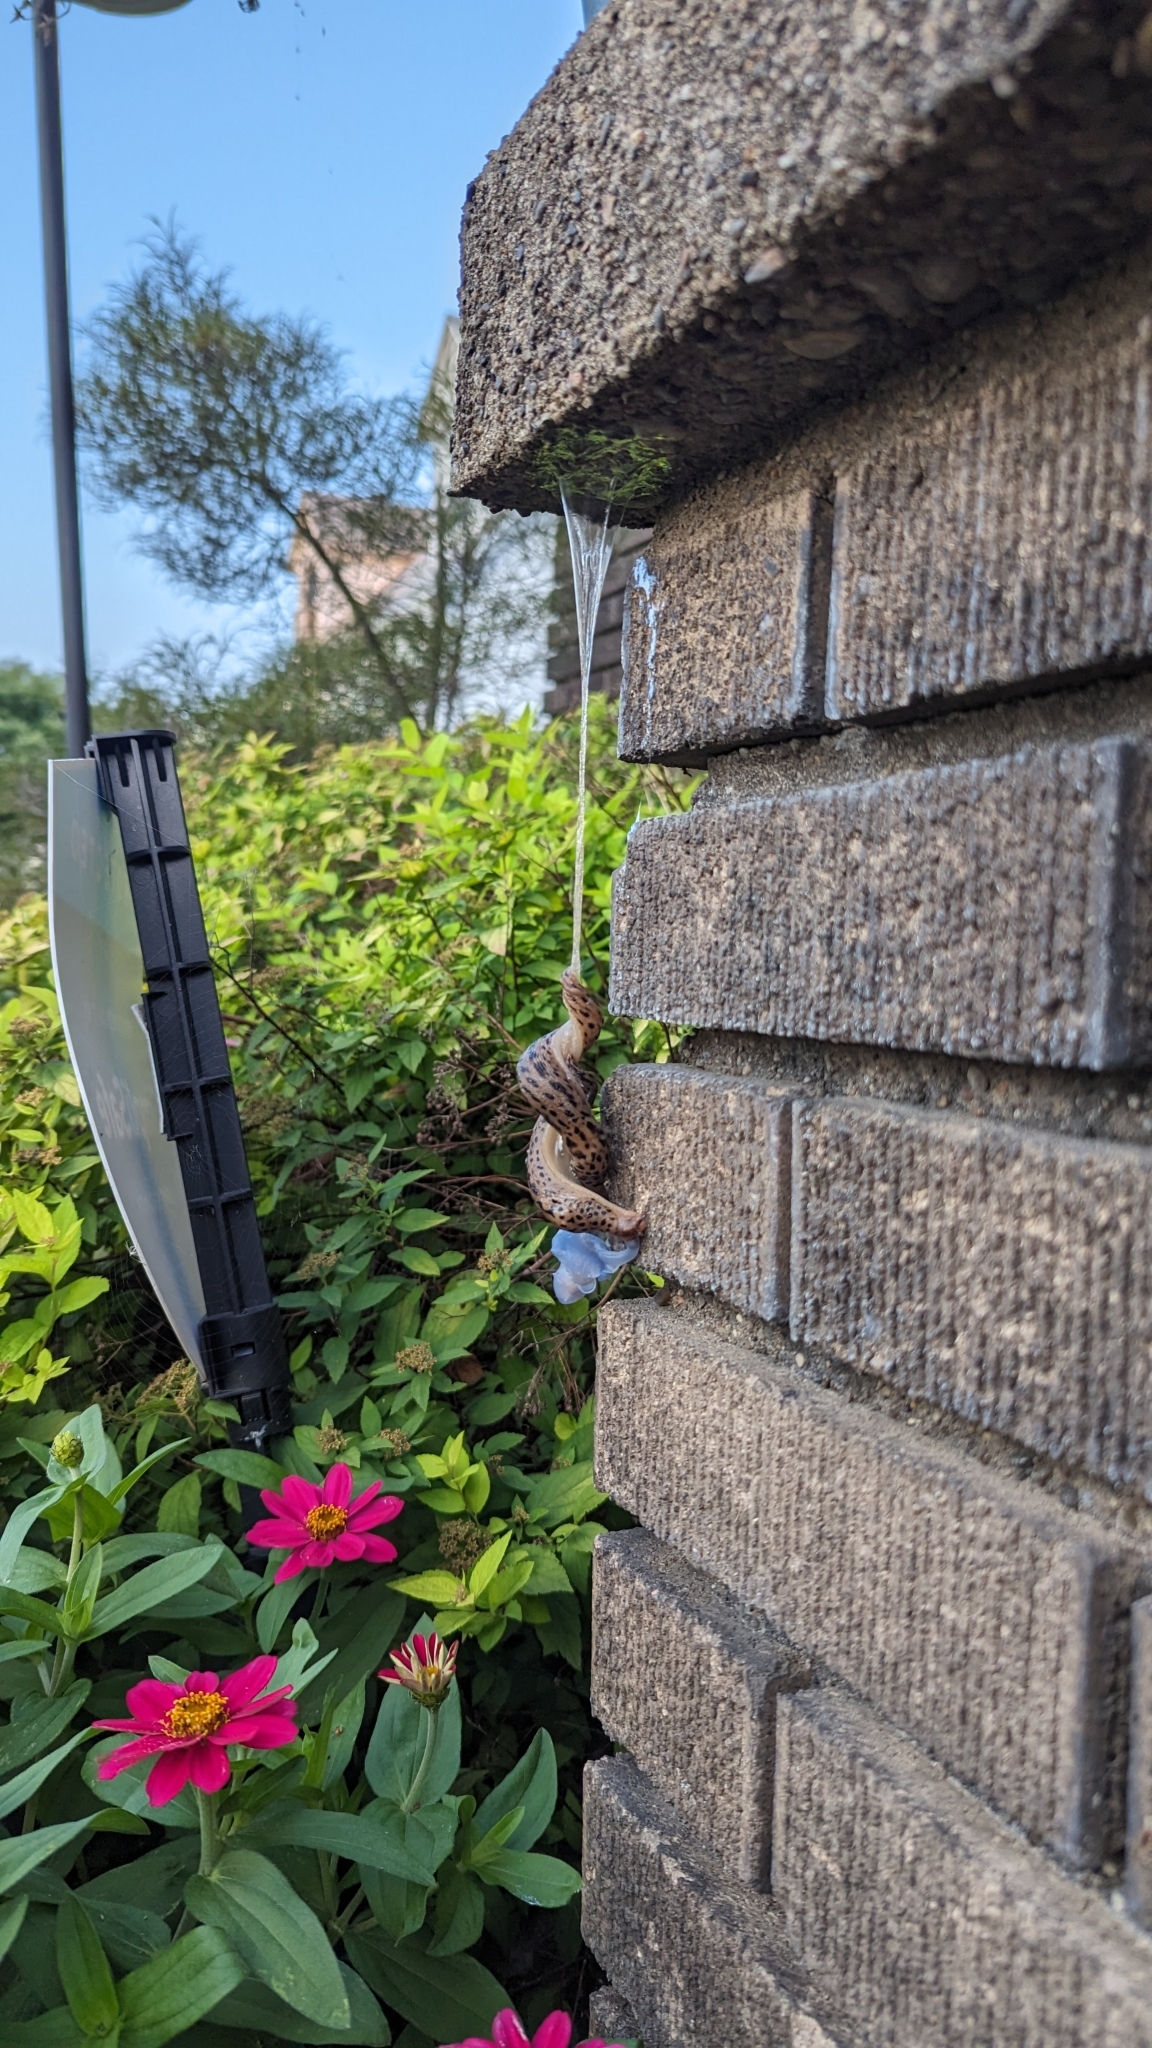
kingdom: Animalia
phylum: Mollusca
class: Gastropoda
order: Stylommatophora
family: Limacidae
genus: Limax
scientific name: Limax maximus
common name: Great grey slug
